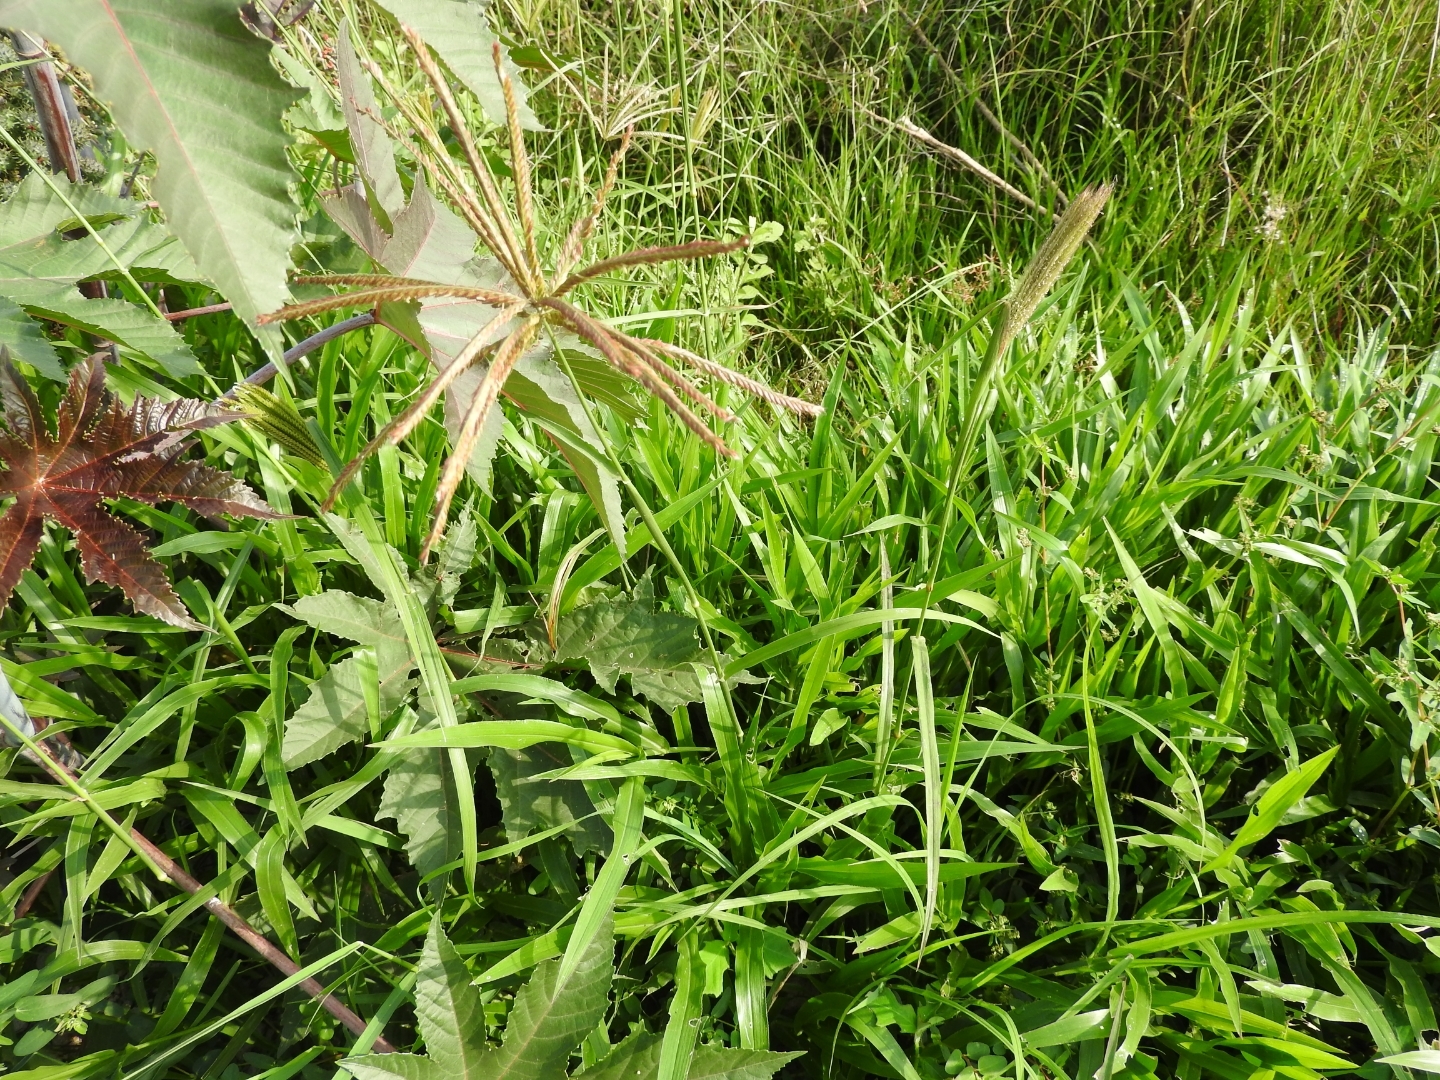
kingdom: Plantae
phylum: Tracheophyta
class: Liliopsida
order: Poales
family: Poaceae
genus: Chloris
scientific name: Chloris cucullata
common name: Hooded windmill grass
